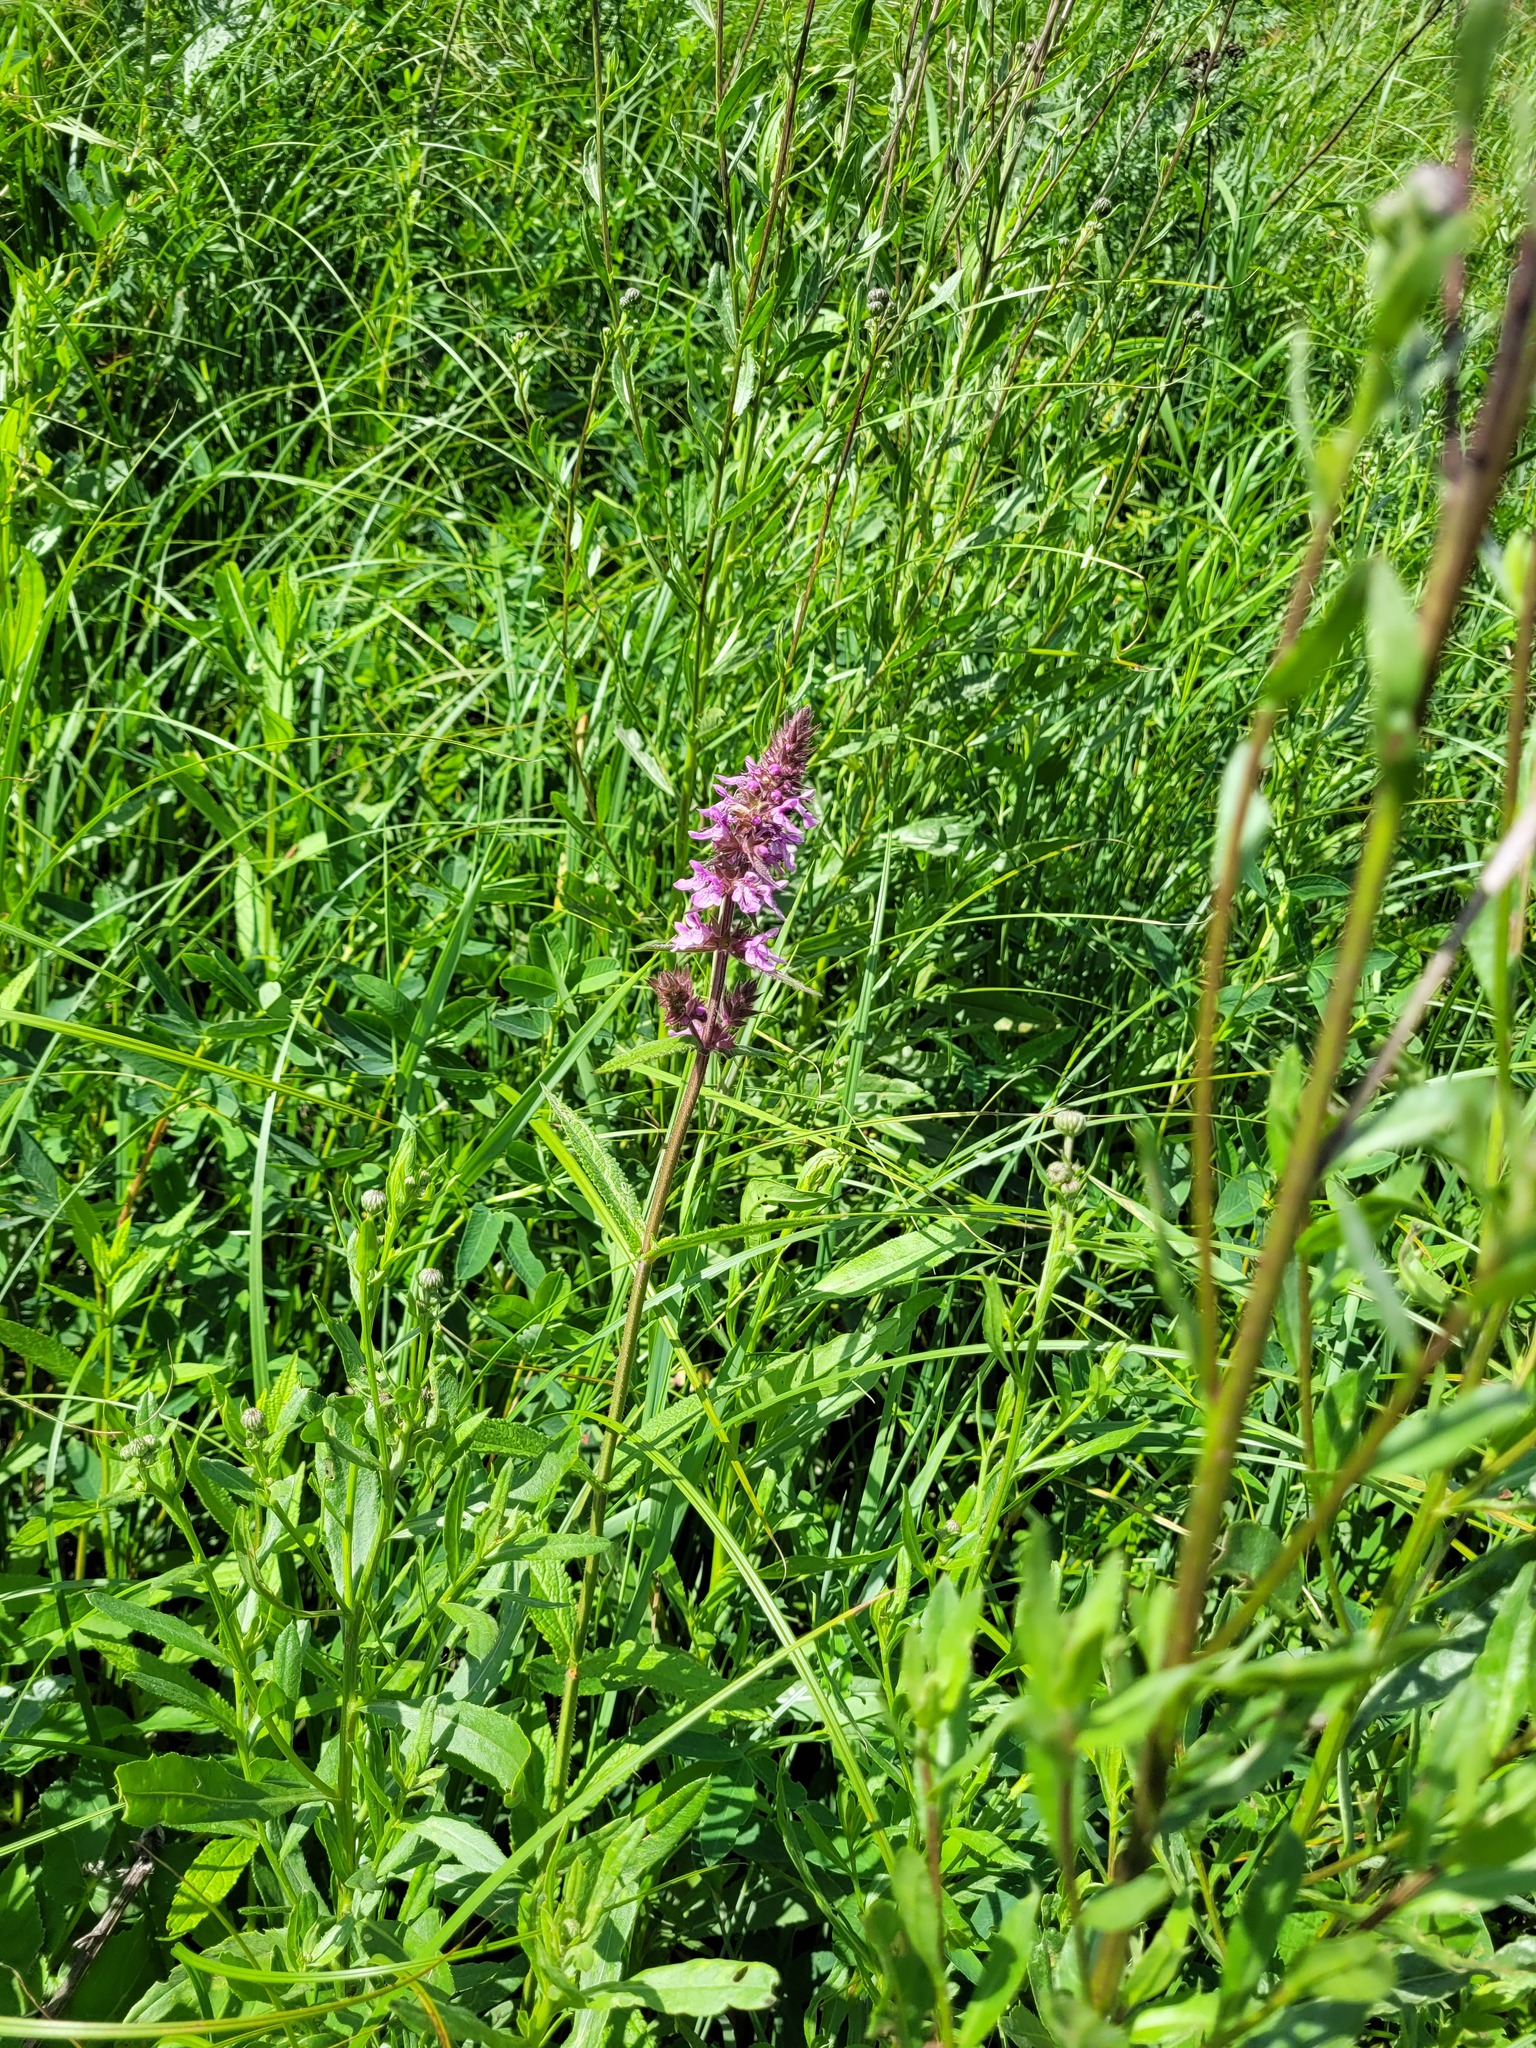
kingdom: Plantae
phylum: Tracheophyta
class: Magnoliopsida
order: Lamiales
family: Lamiaceae
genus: Stachys
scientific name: Stachys palustris
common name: Marsh woundwort
